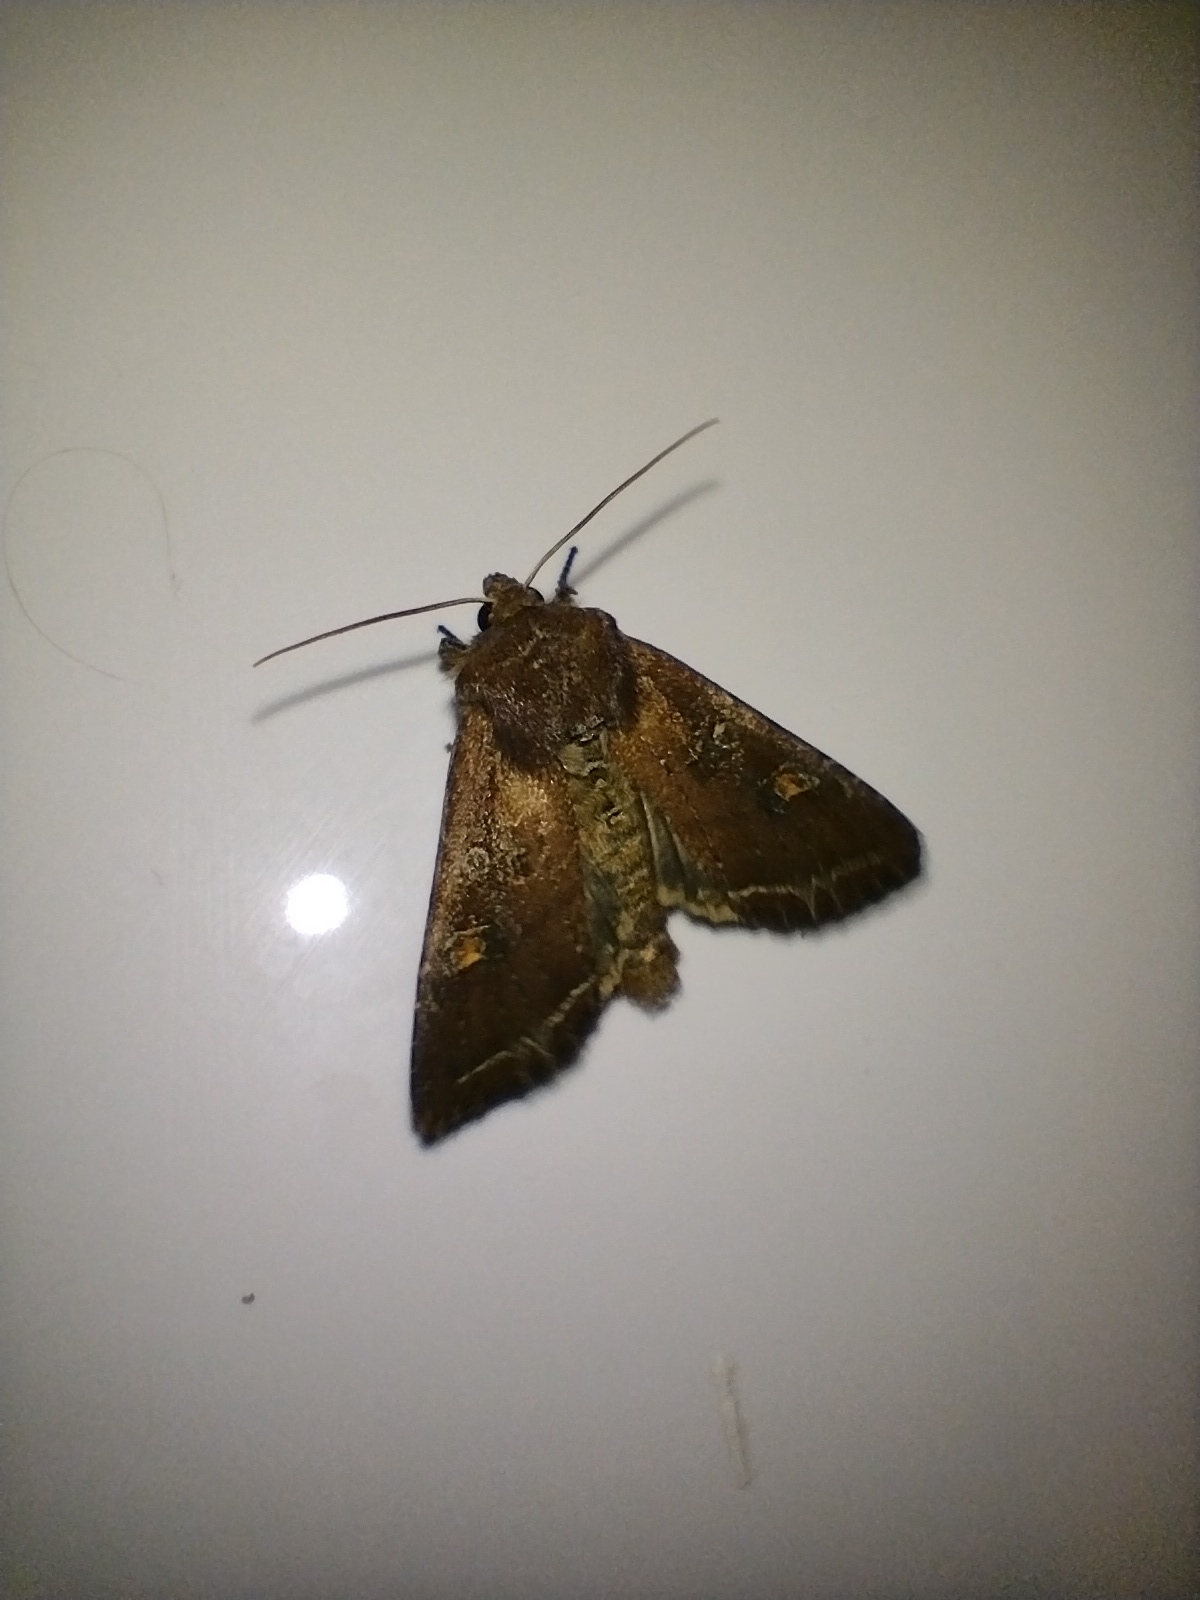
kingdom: Animalia
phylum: Arthropoda
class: Insecta
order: Lepidoptera
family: Noctuidae
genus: Lacanobia
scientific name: Lacanobia oleracea
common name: Bright-line brown-eye
